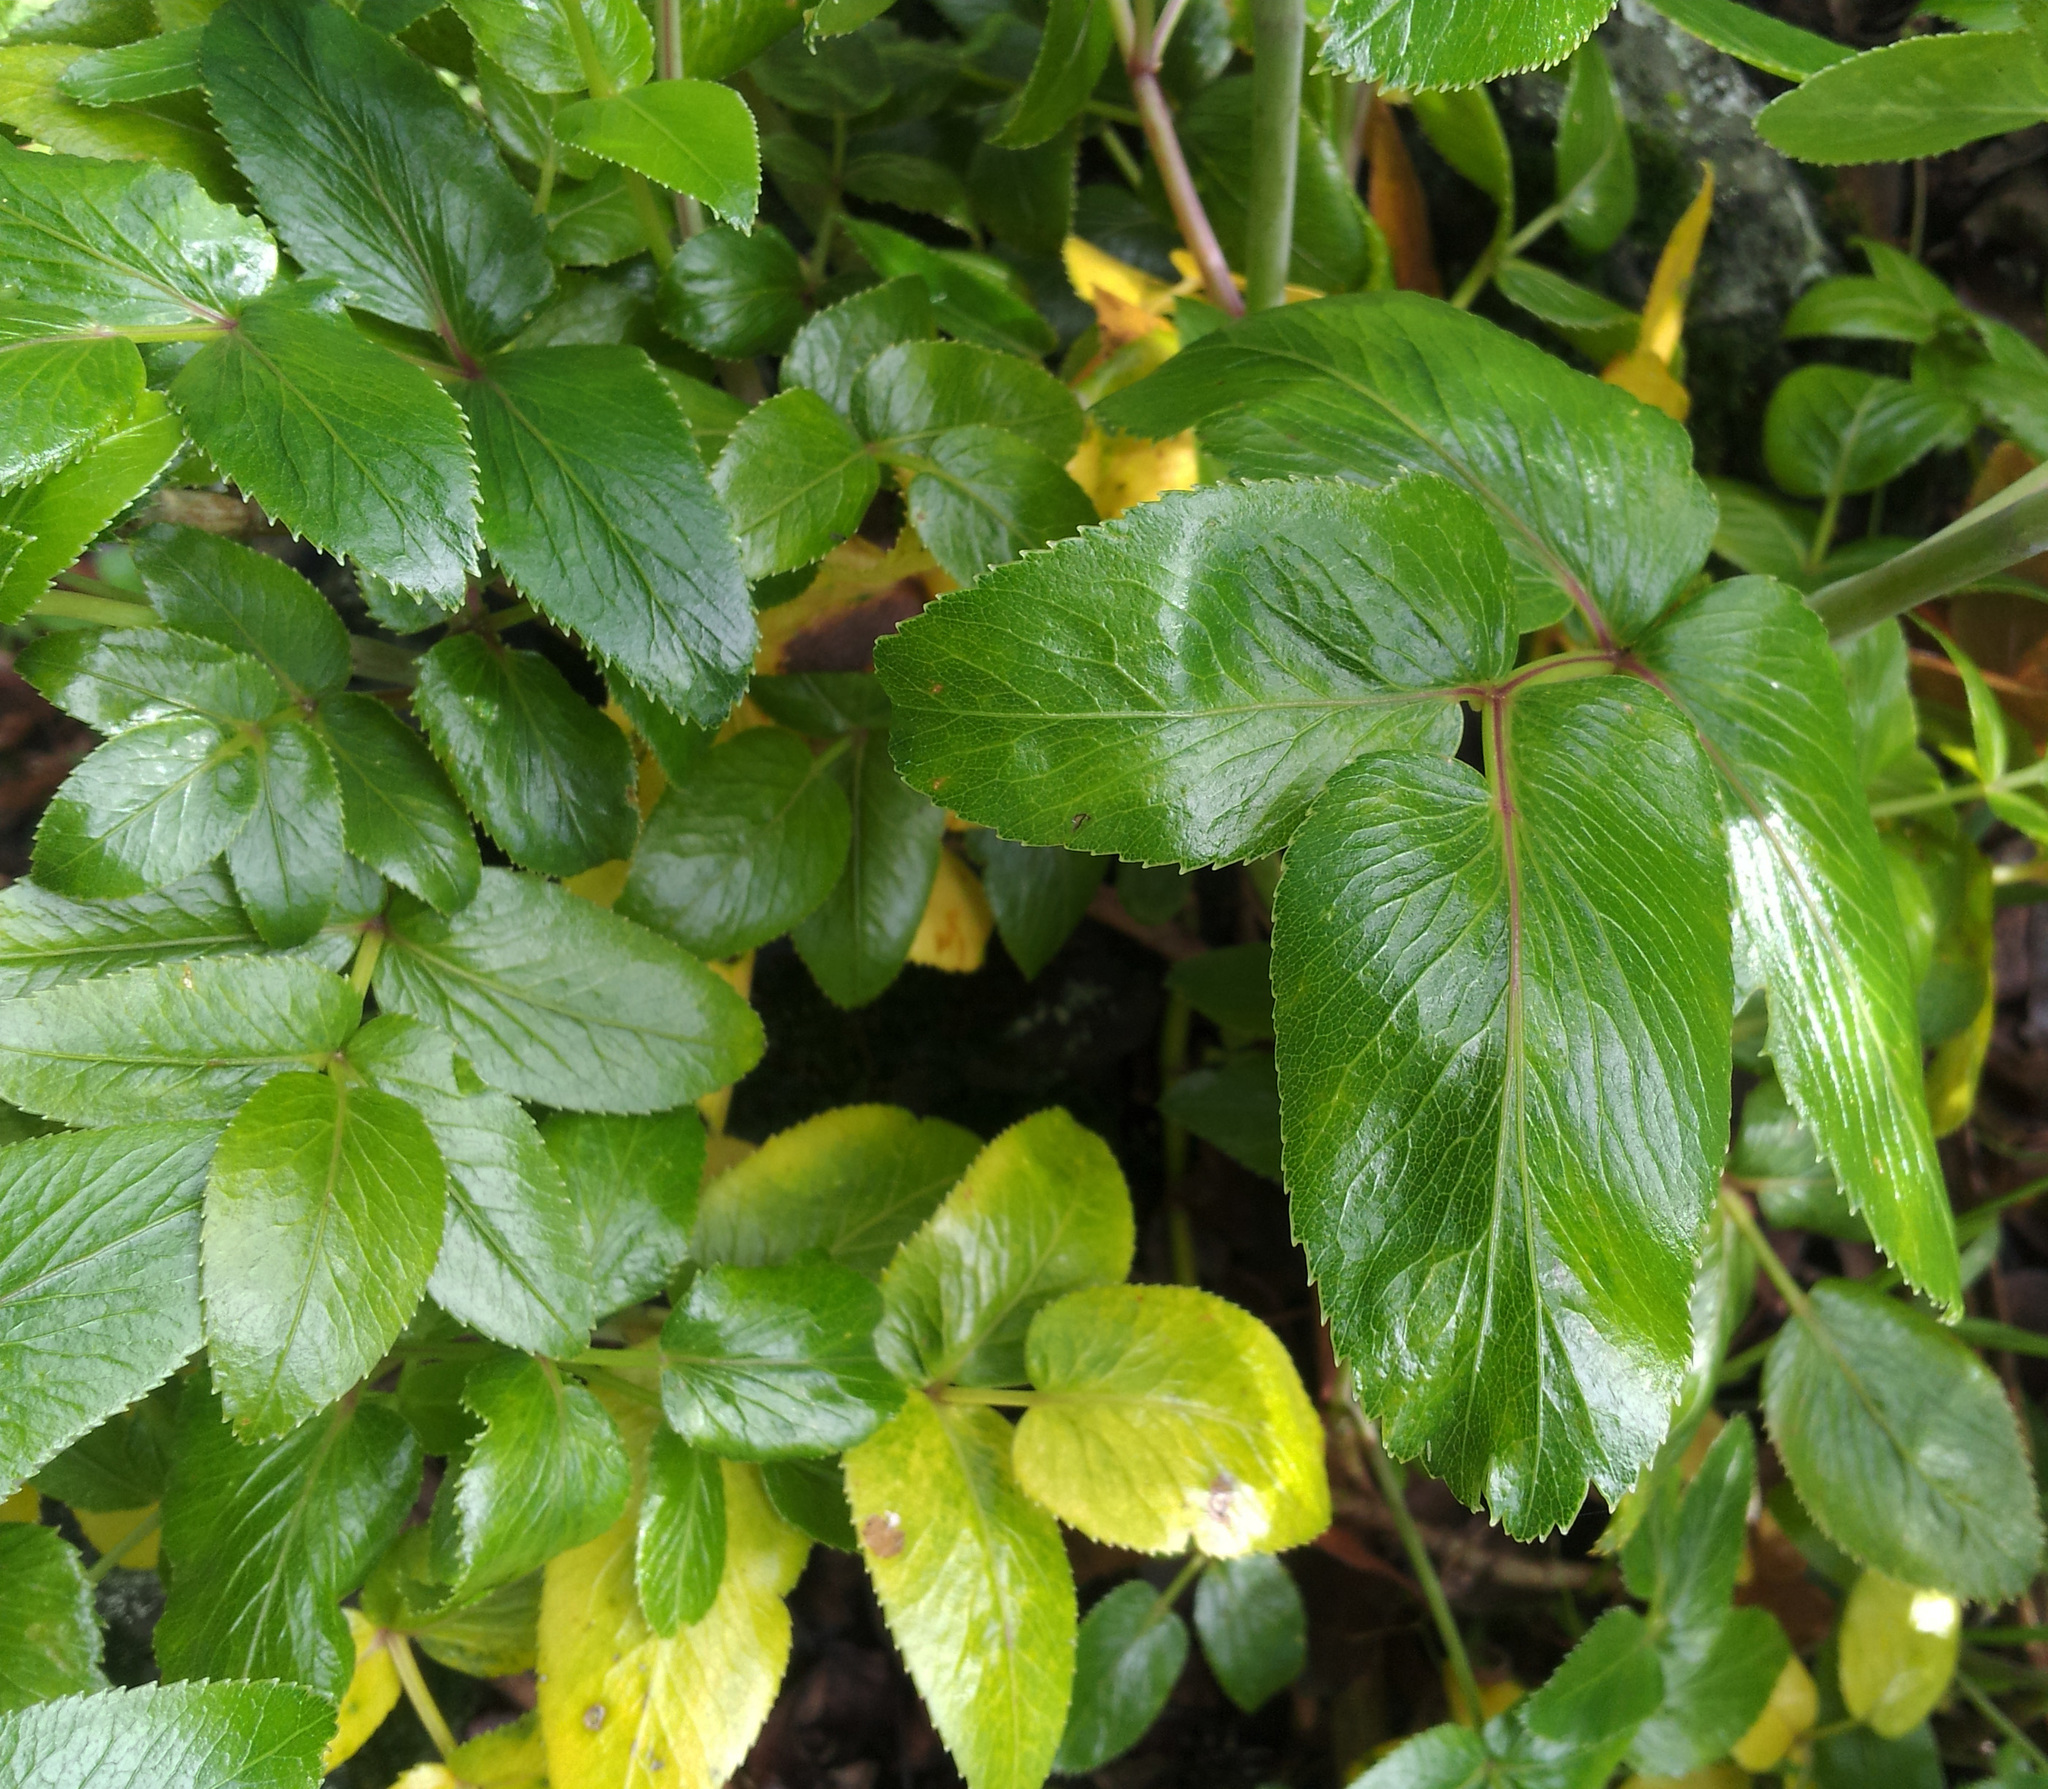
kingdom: Plantae
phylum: Tracheophyta
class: Magnoliopsida
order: Apiales
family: Apiaceae
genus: Scandia
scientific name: Scandia rosifolia
